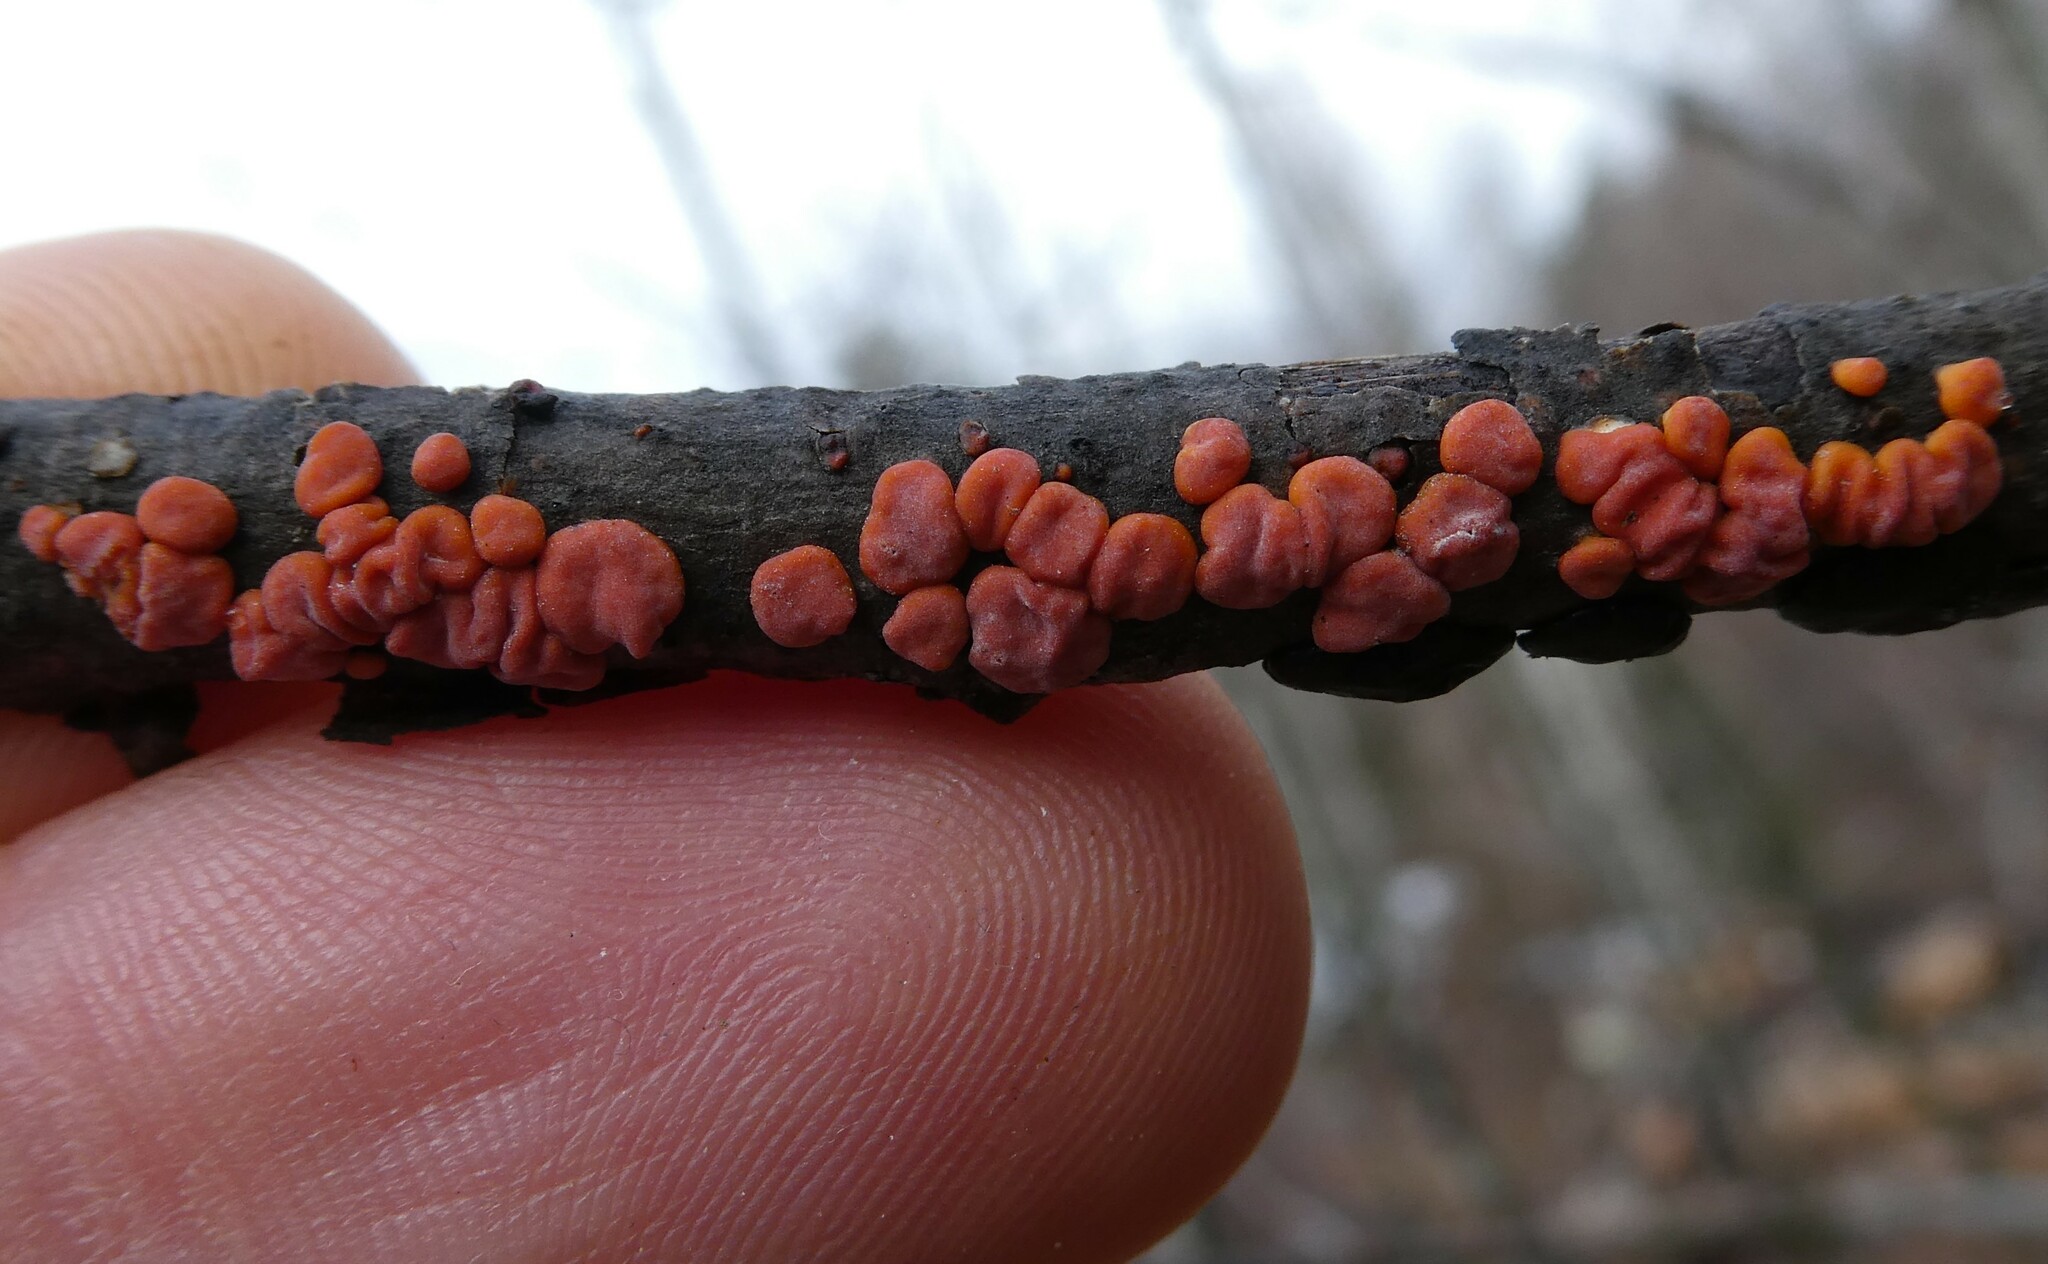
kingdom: Fungi
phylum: Basidiomycota
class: Agaricomycetes
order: Russulales
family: Peniophoraceae
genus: Peniophora
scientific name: Peniophora rufa
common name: Red tree brain fungus
